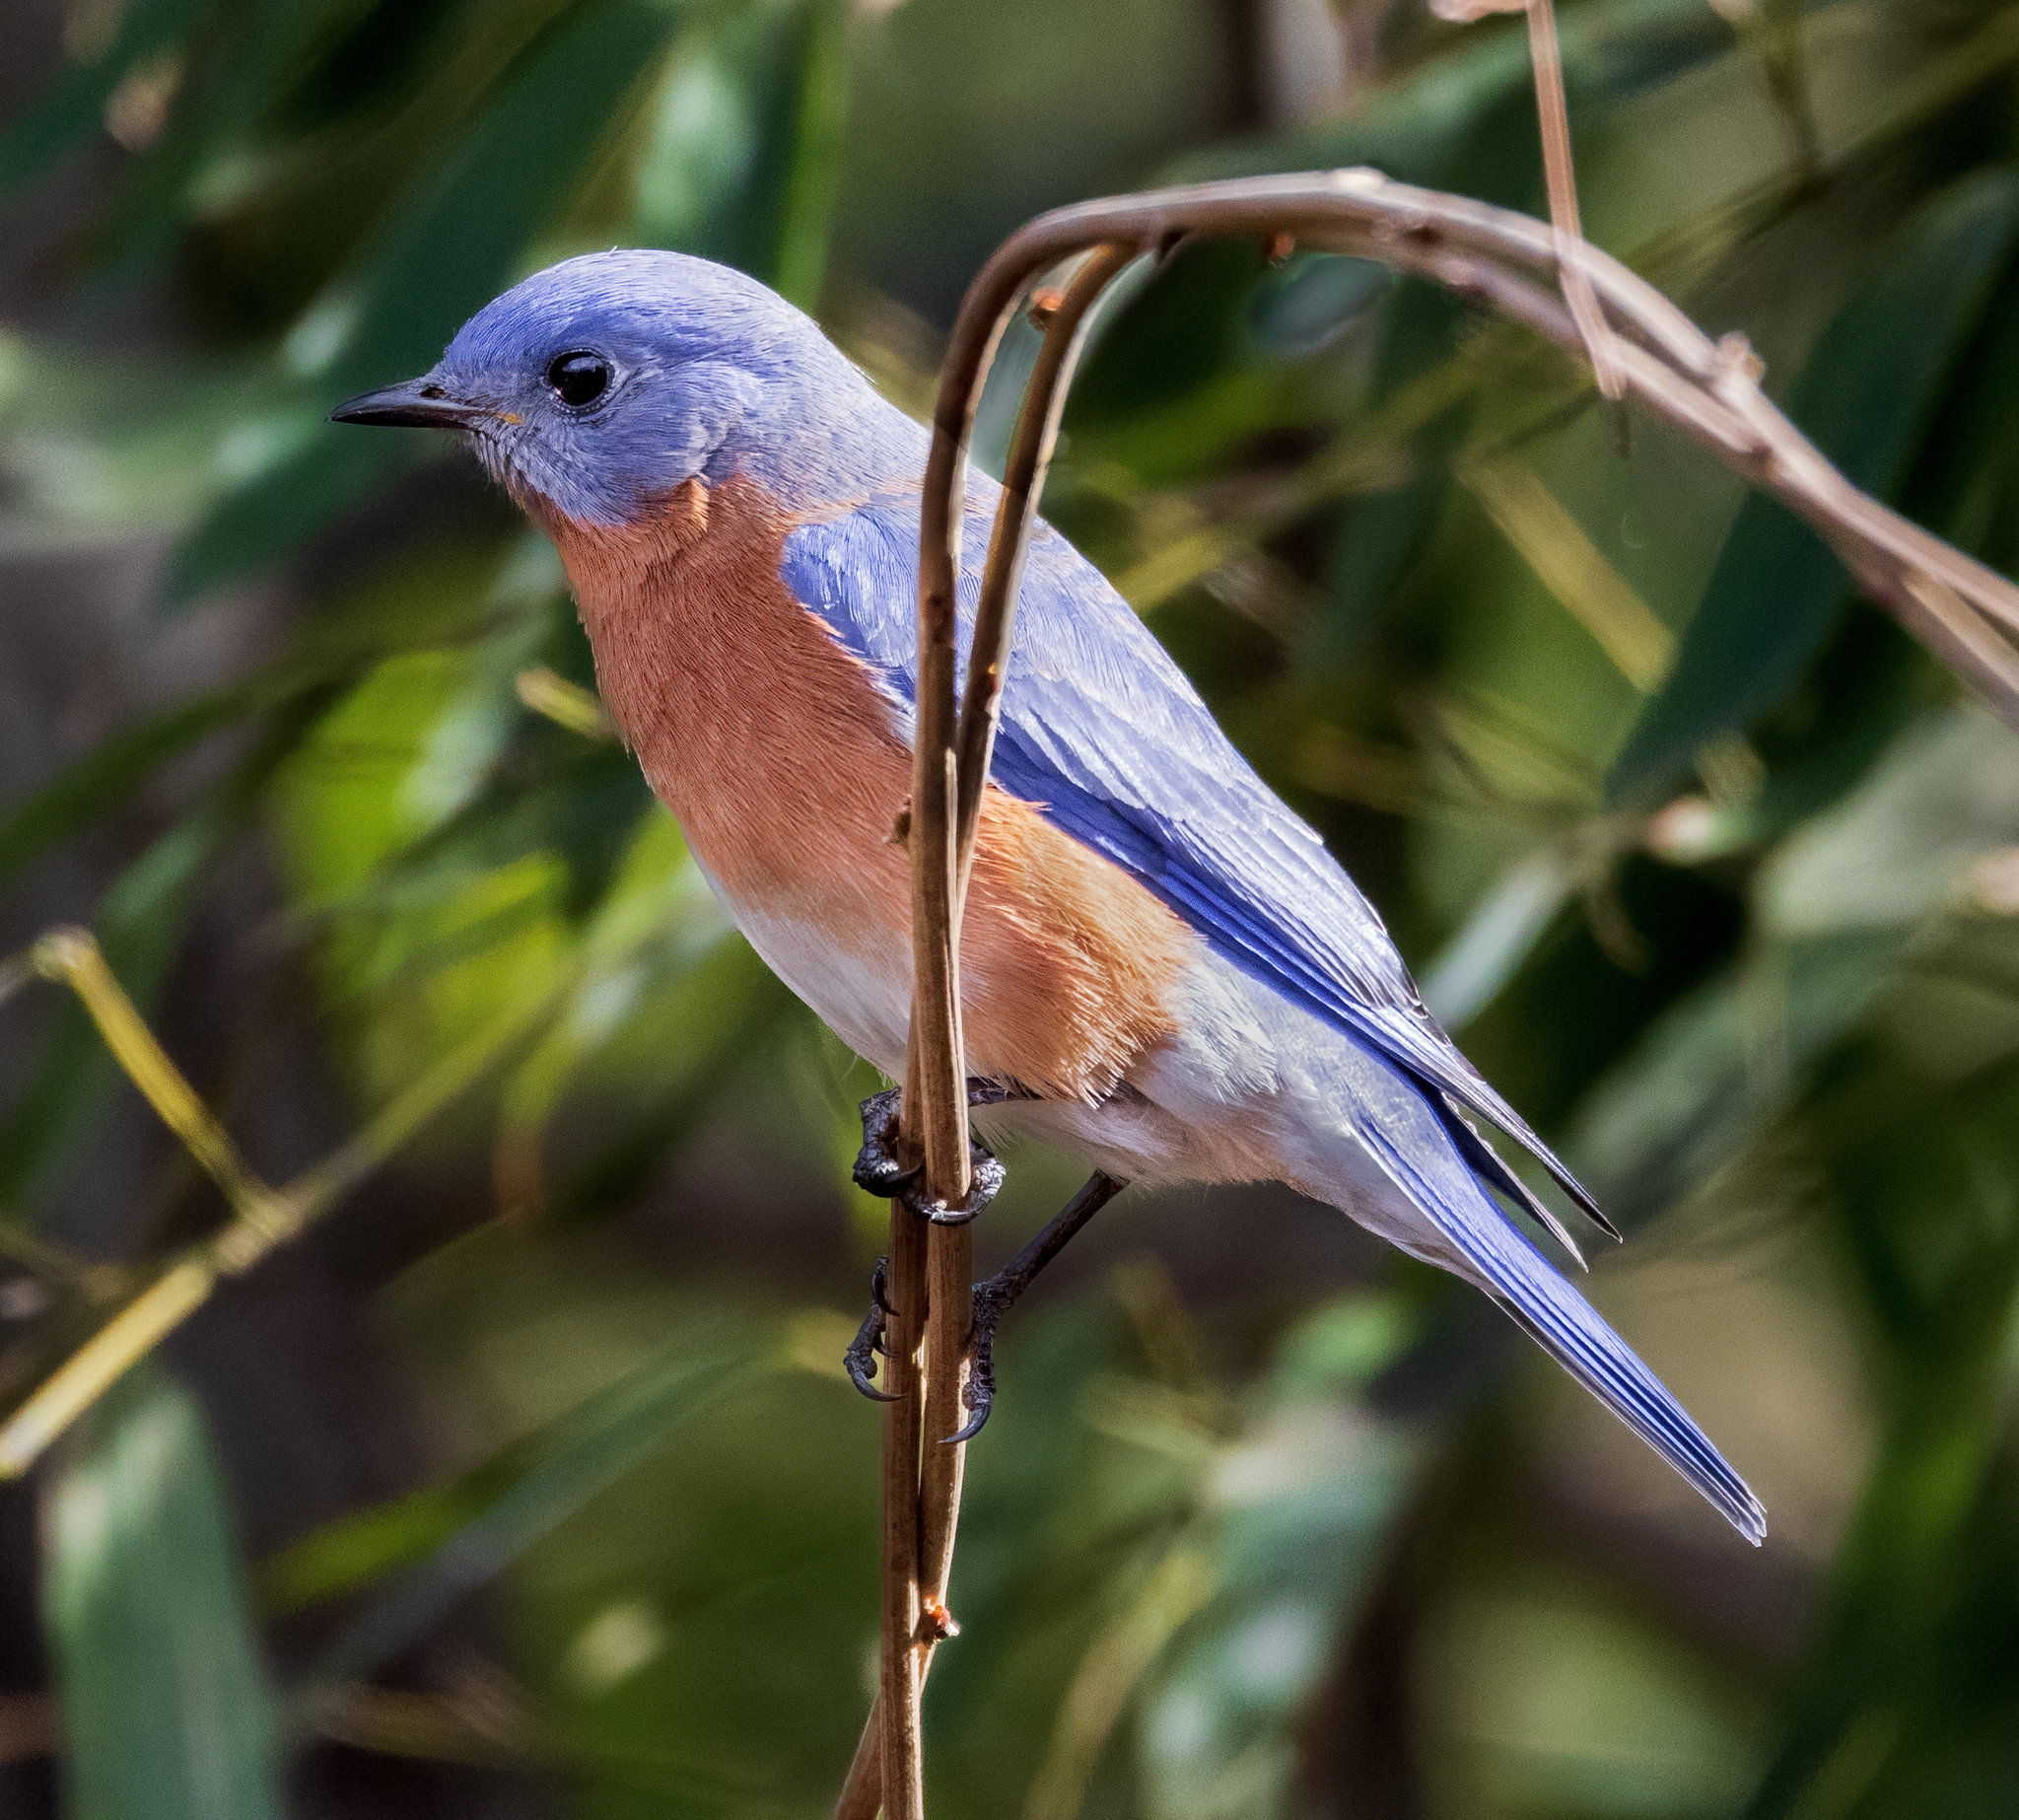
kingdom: Animalia
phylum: Chordata
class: Aves
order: Passeriformes
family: Turdidae
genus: Sialia
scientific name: Sialia sialis
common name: Eastern bluebird
